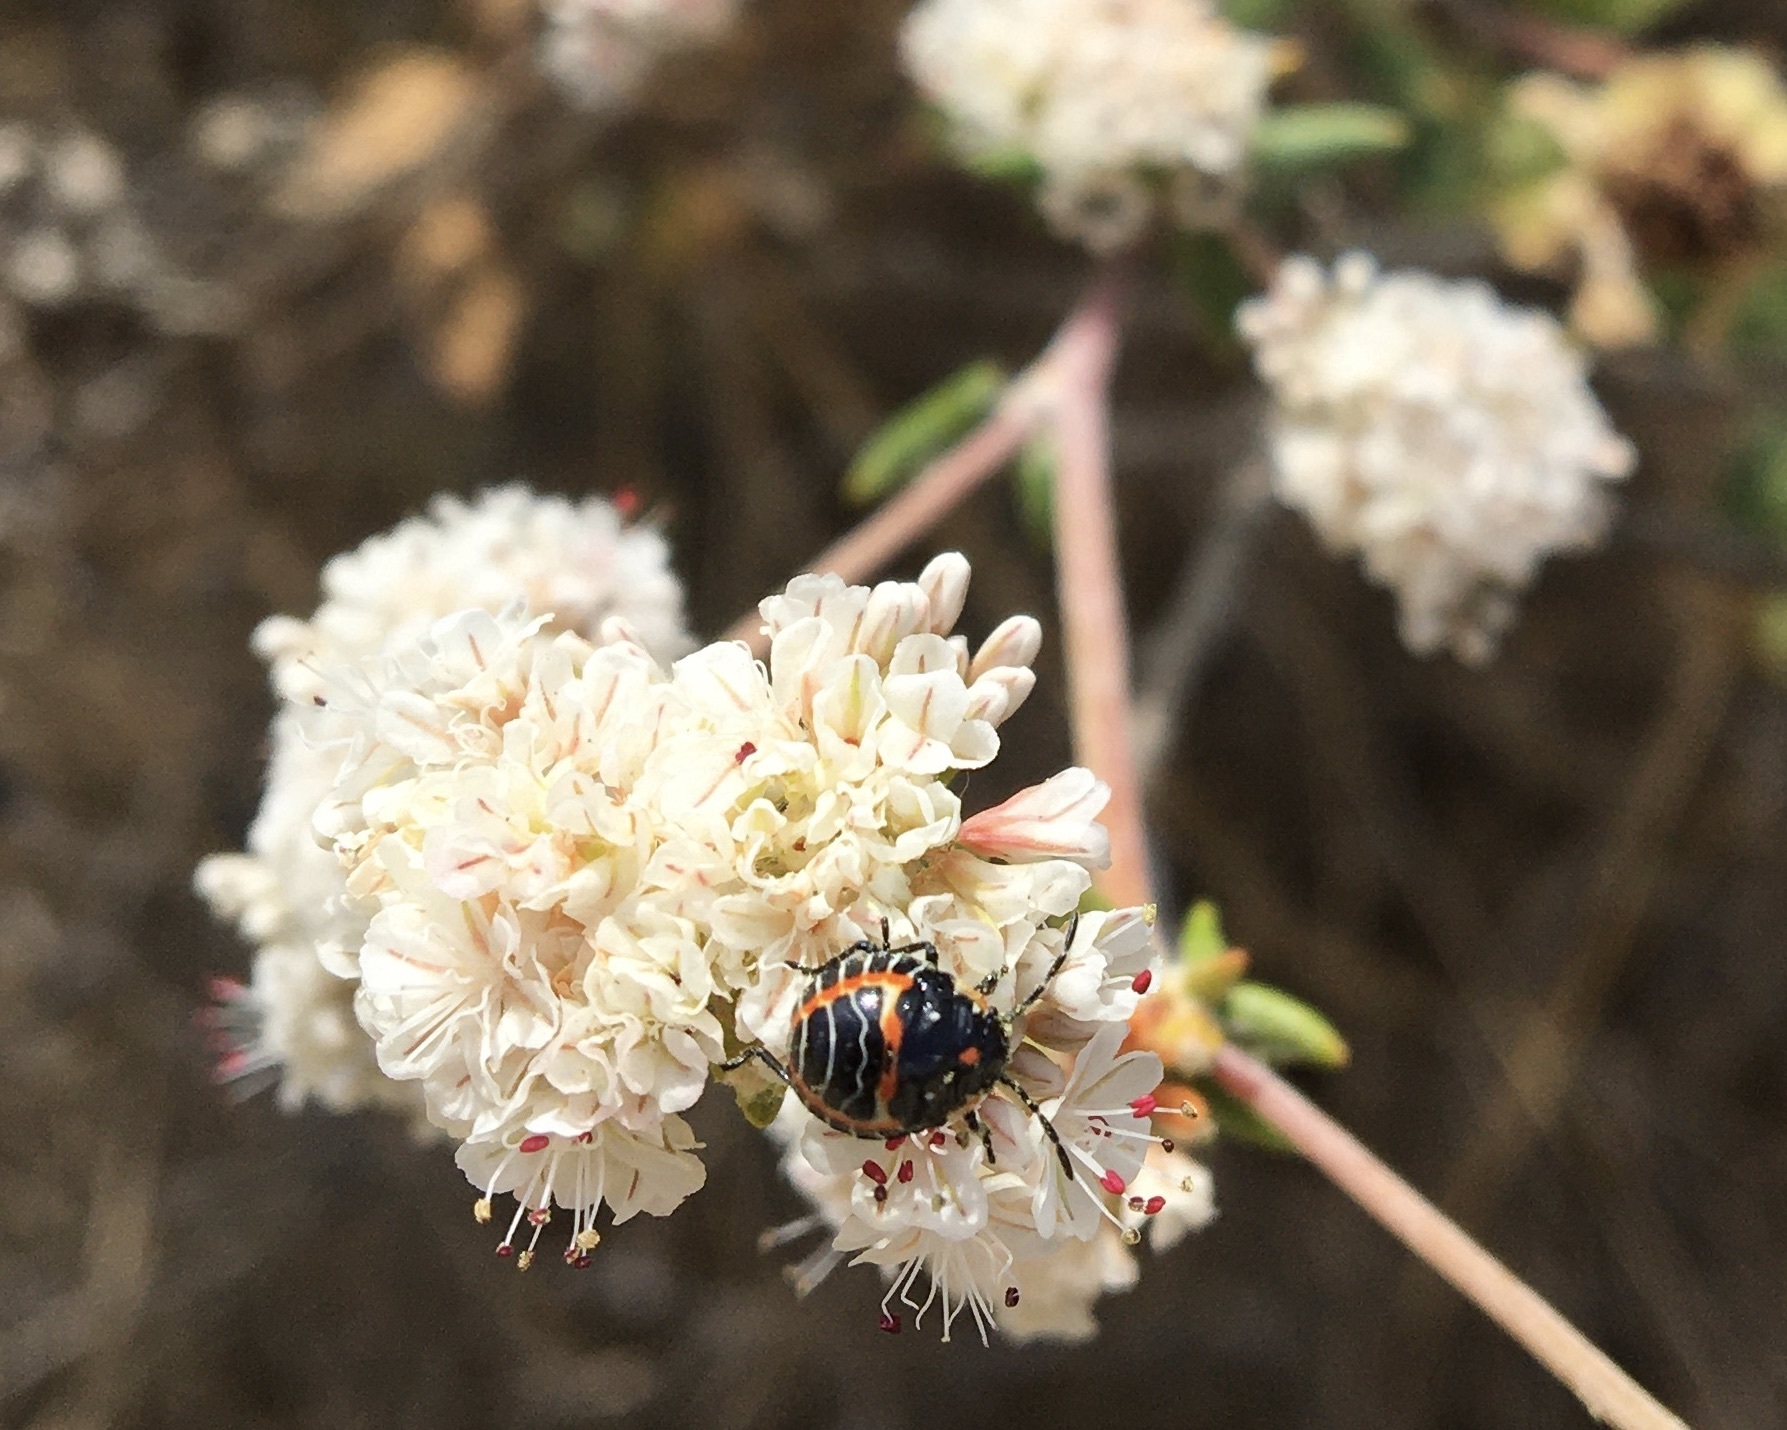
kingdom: Animalia
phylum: Arthropoda
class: Insecta
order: Hemiptera
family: Pentatomidae
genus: Murgantia
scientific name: Murgantia histrionica
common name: Harlequin bug
